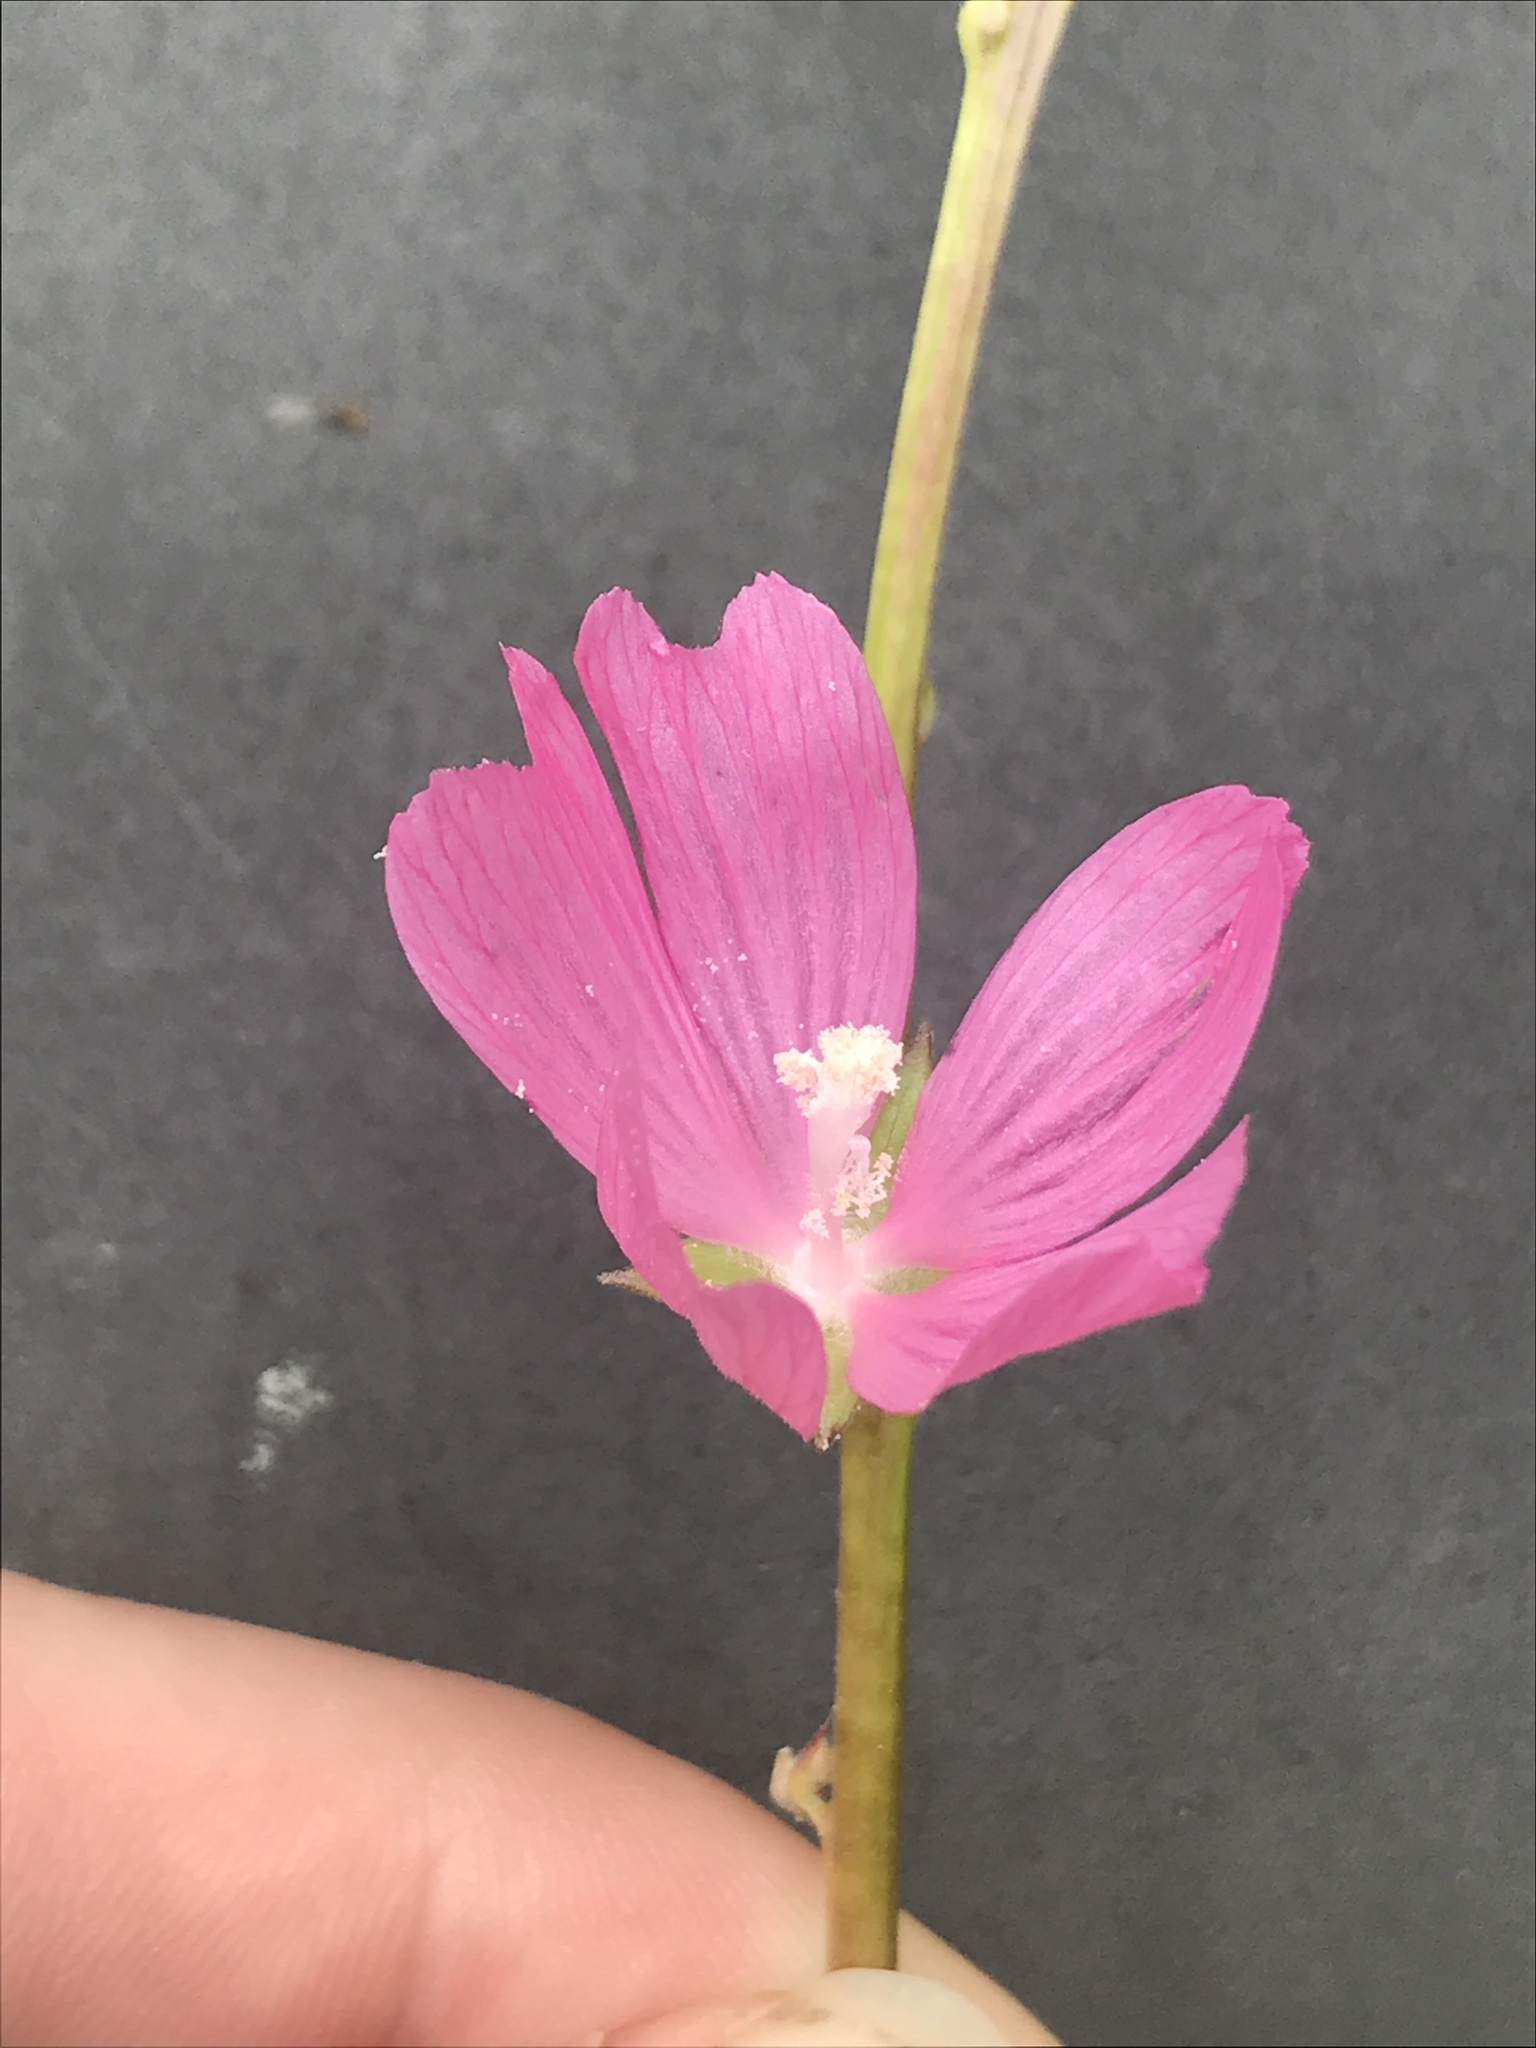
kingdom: Plantae
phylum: Tracheophyta
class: Magnoliopsida
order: Malvales
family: Malvaceae
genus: Sidalcea
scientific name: Sidalcea asprella
